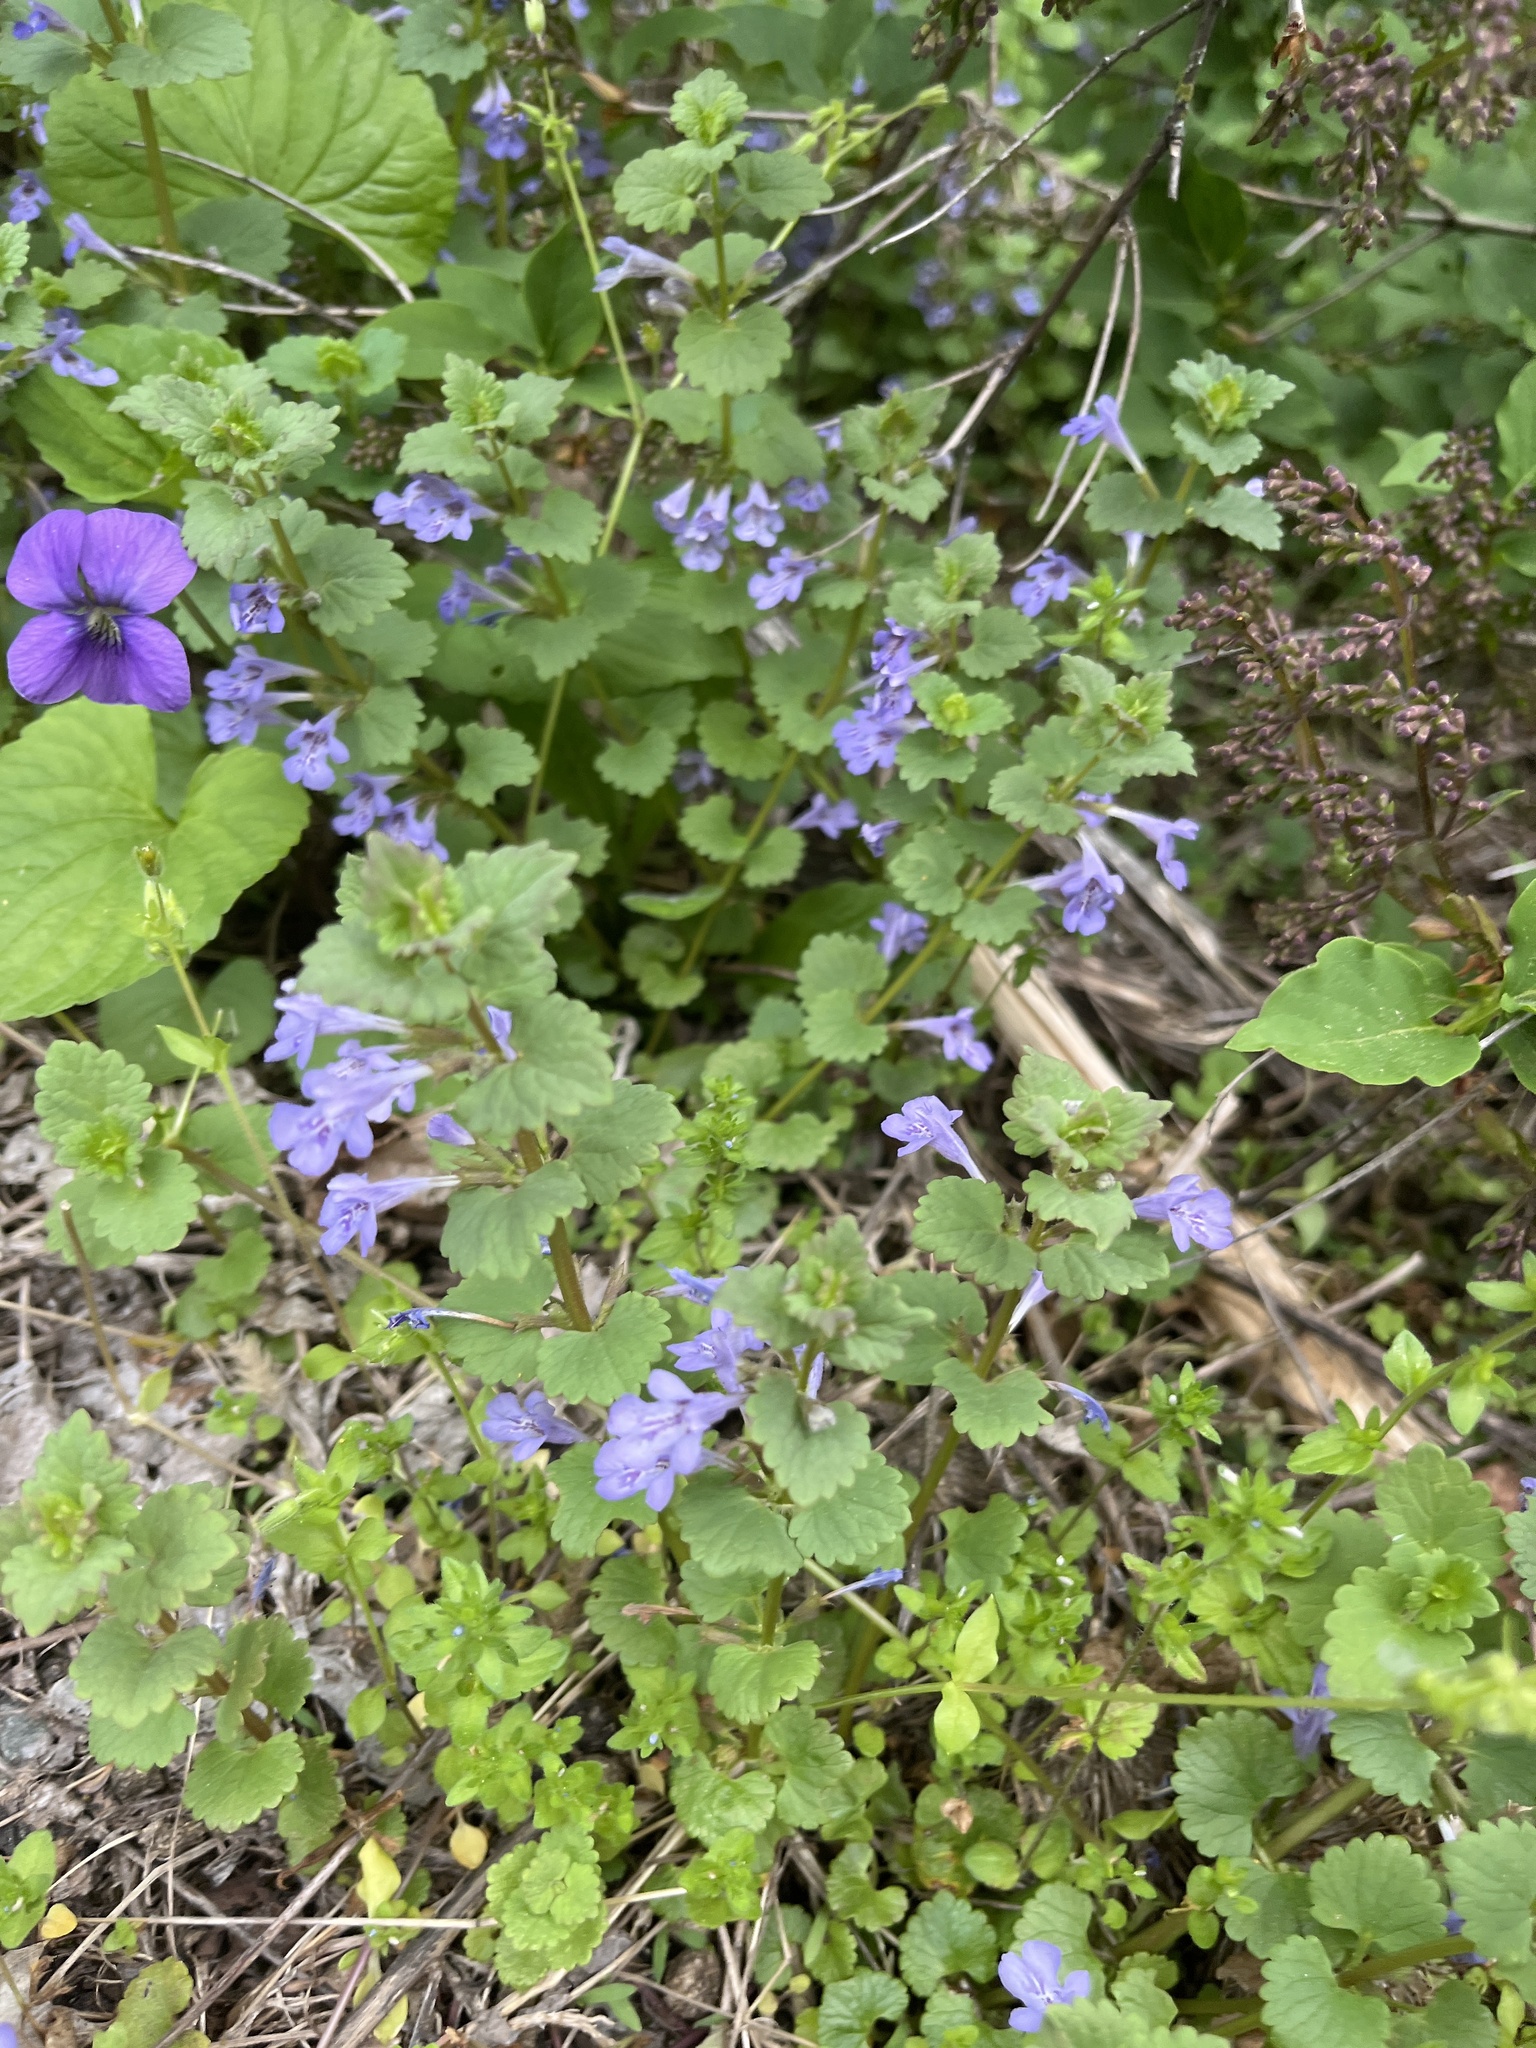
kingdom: Plantae
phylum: Tracheophyta
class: Magnoliopsida
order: Lamiales
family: Lamiaceae
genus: Glechoma
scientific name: Glechoma hederacea
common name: Ground ivy
